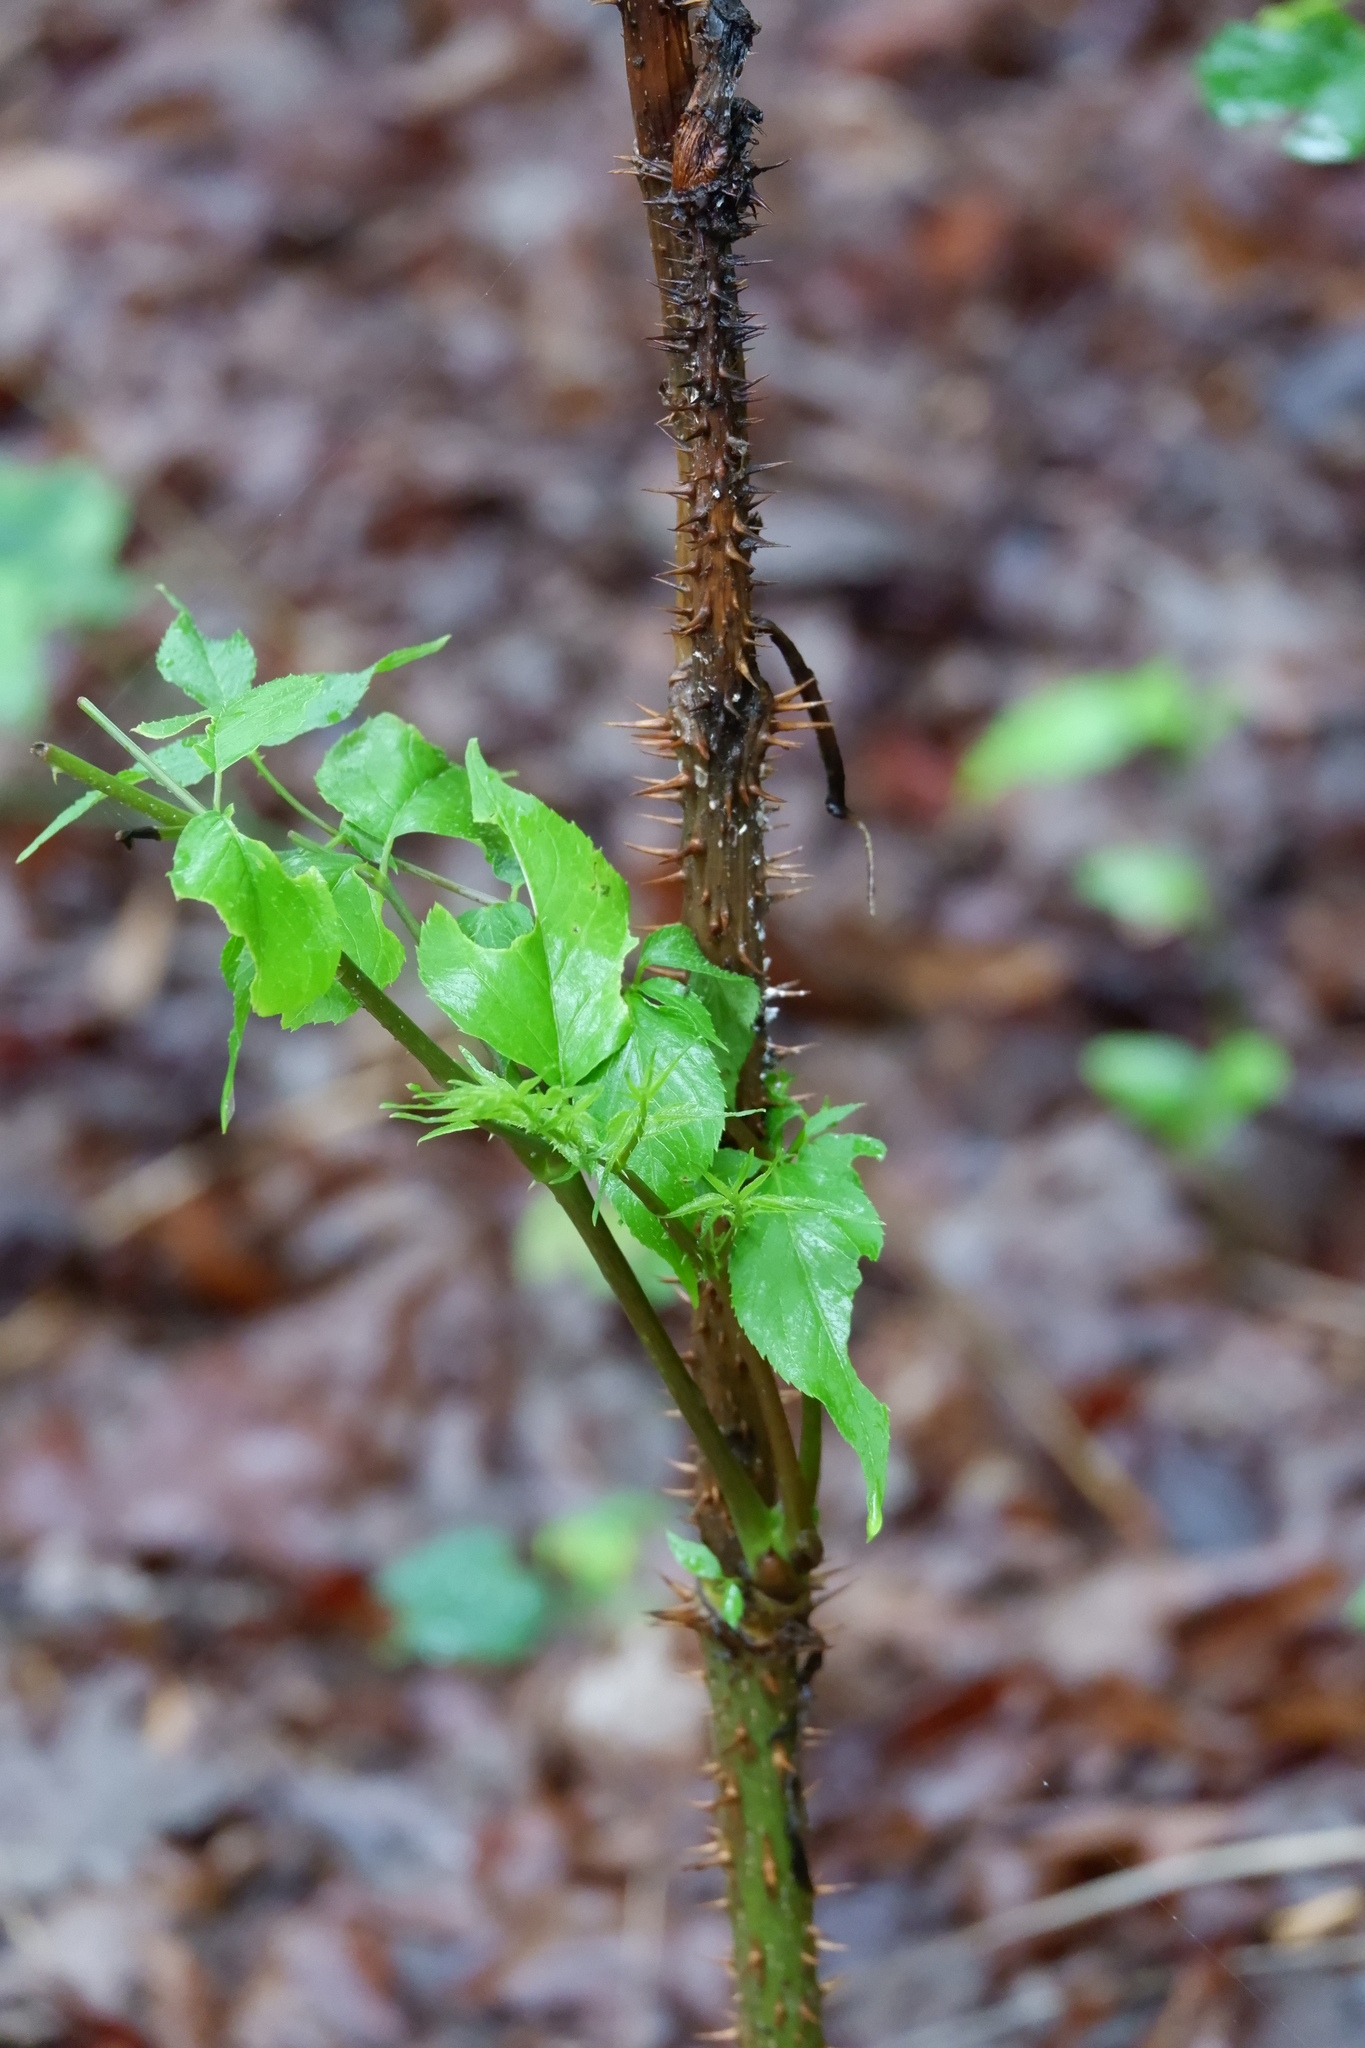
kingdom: Plantae
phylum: Tracheophyta
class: Magnoliopsida
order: Apiales
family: Araliaceae
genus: Aralia
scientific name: Aralia spinosa
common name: Hercules'-club
